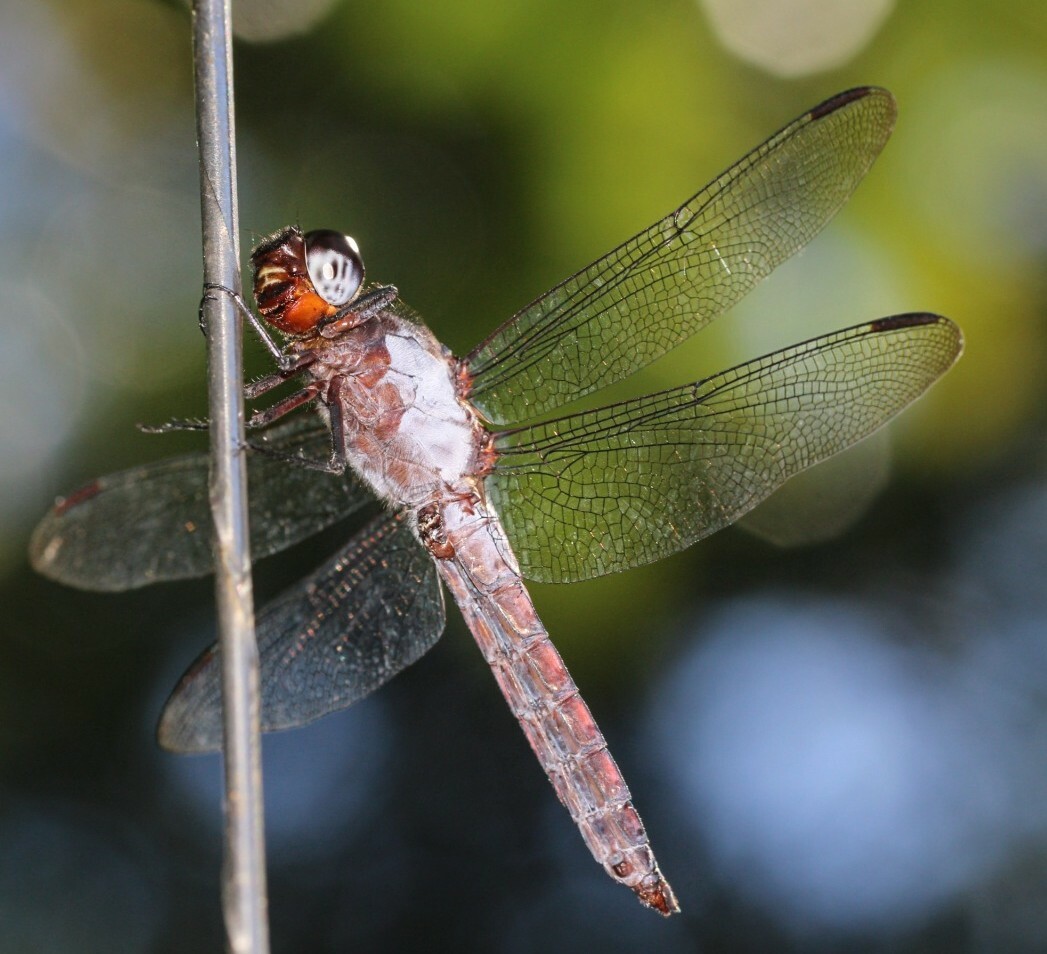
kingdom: Animalia
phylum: Arthropoda
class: Insecta
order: Odonata
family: Libellulidae
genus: Libellula
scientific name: Libellula herculea
